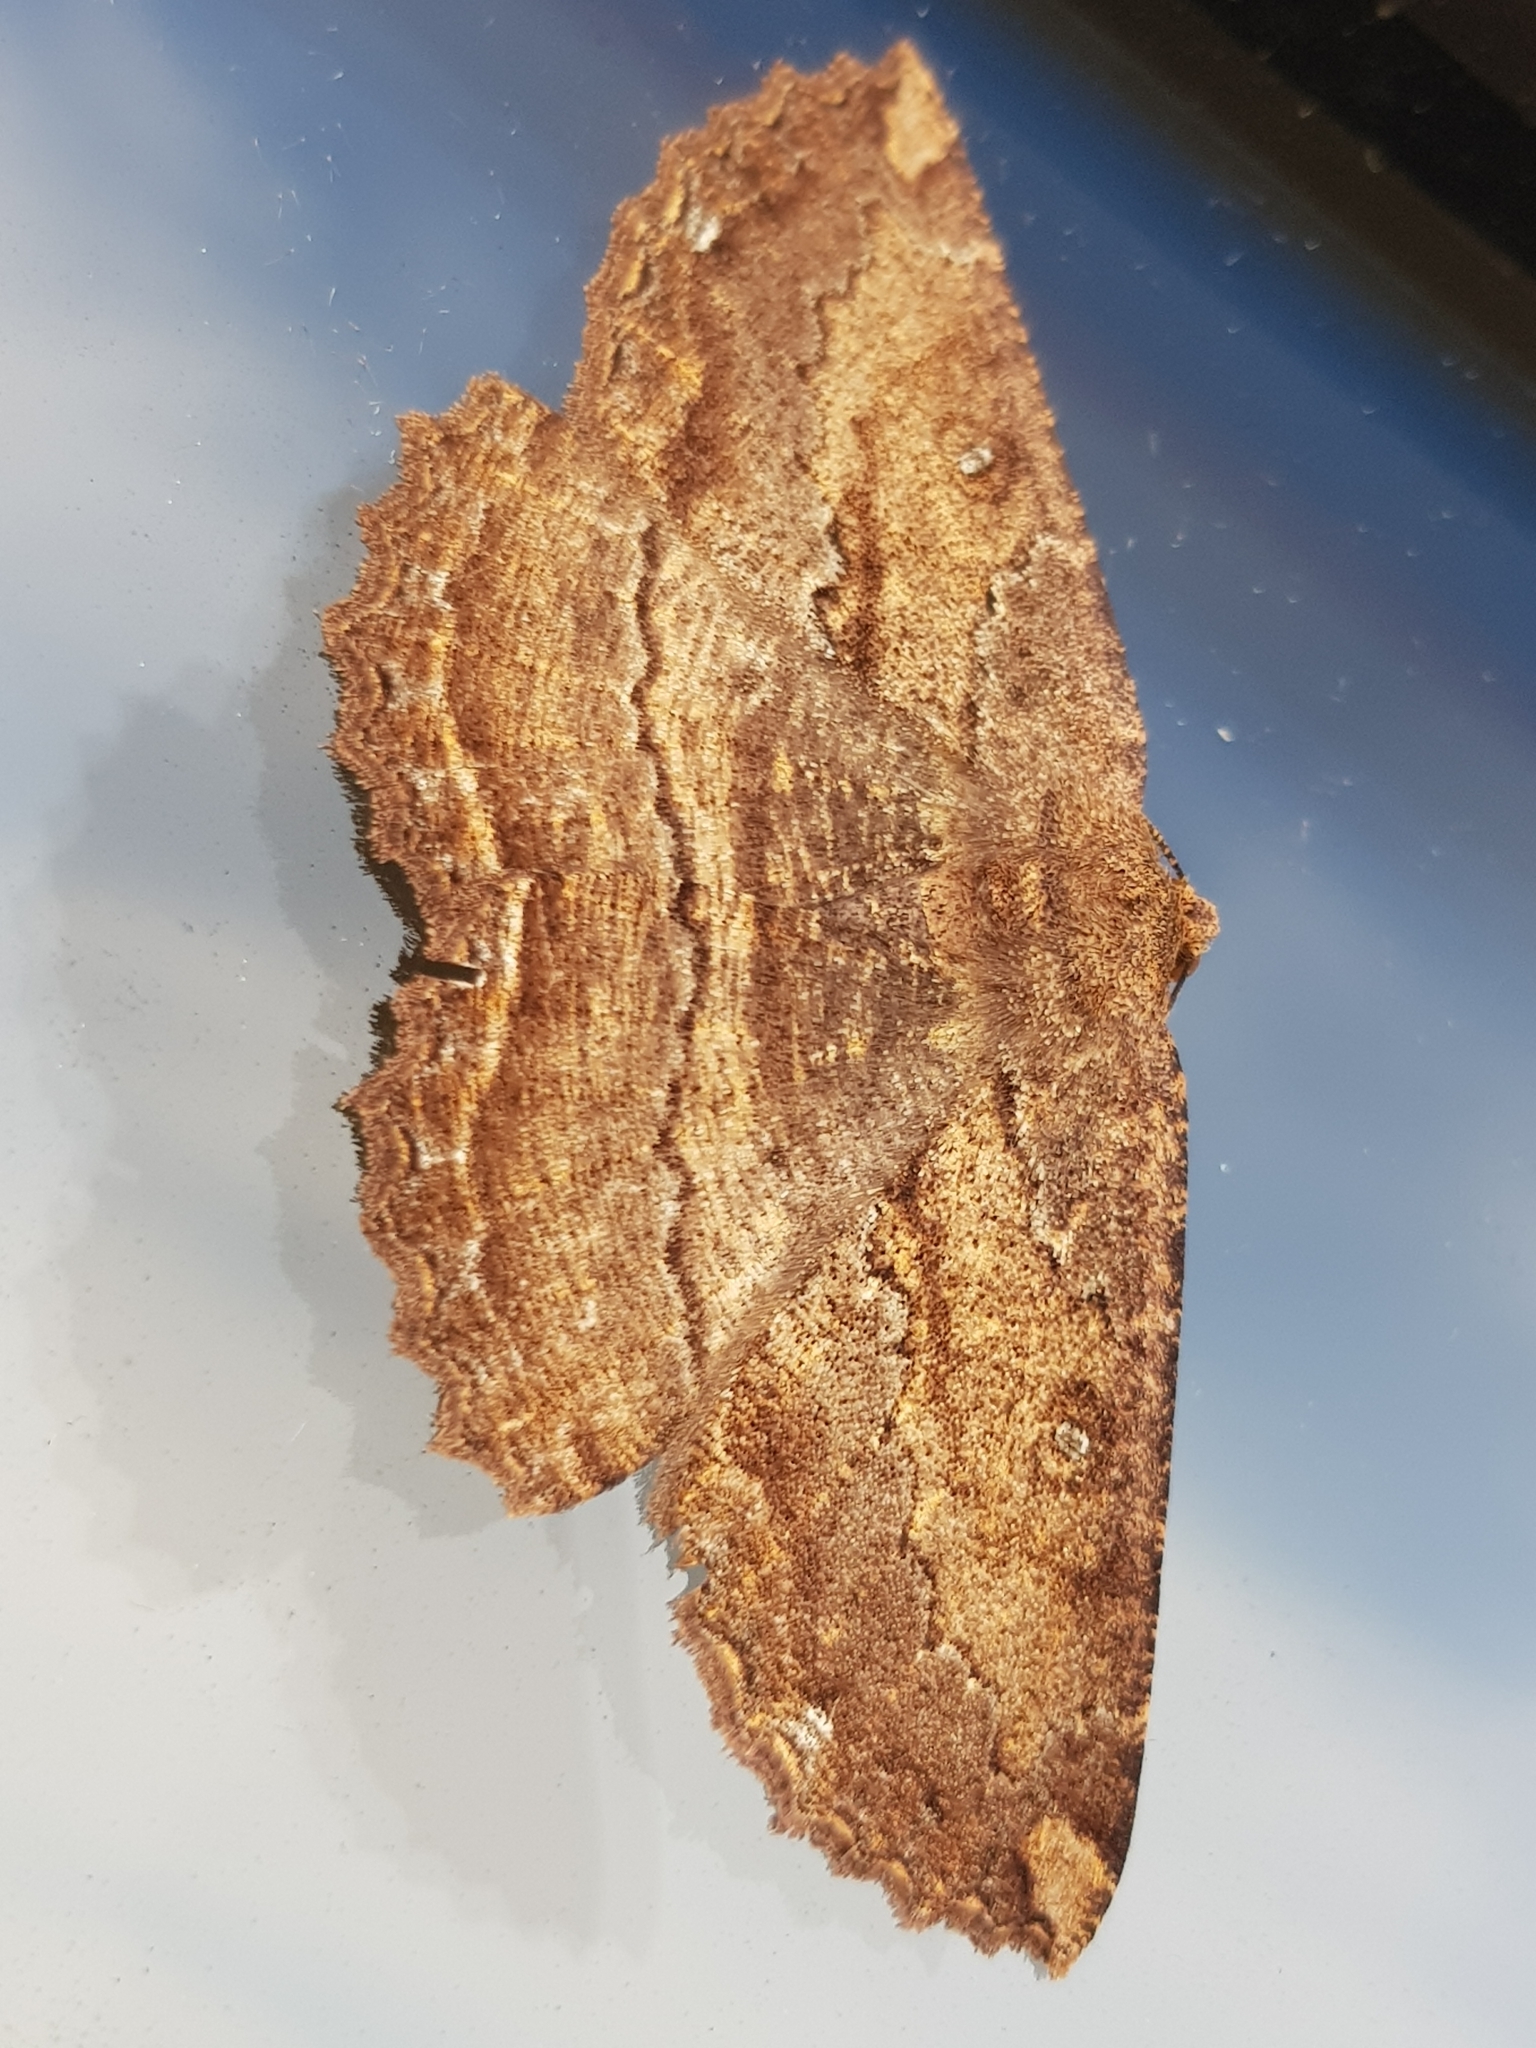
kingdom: Animalia
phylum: Arthropoda
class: Insecta
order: Lepidoptera
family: Geometridae
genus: Gellonia
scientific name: Gellonia dejectaria
